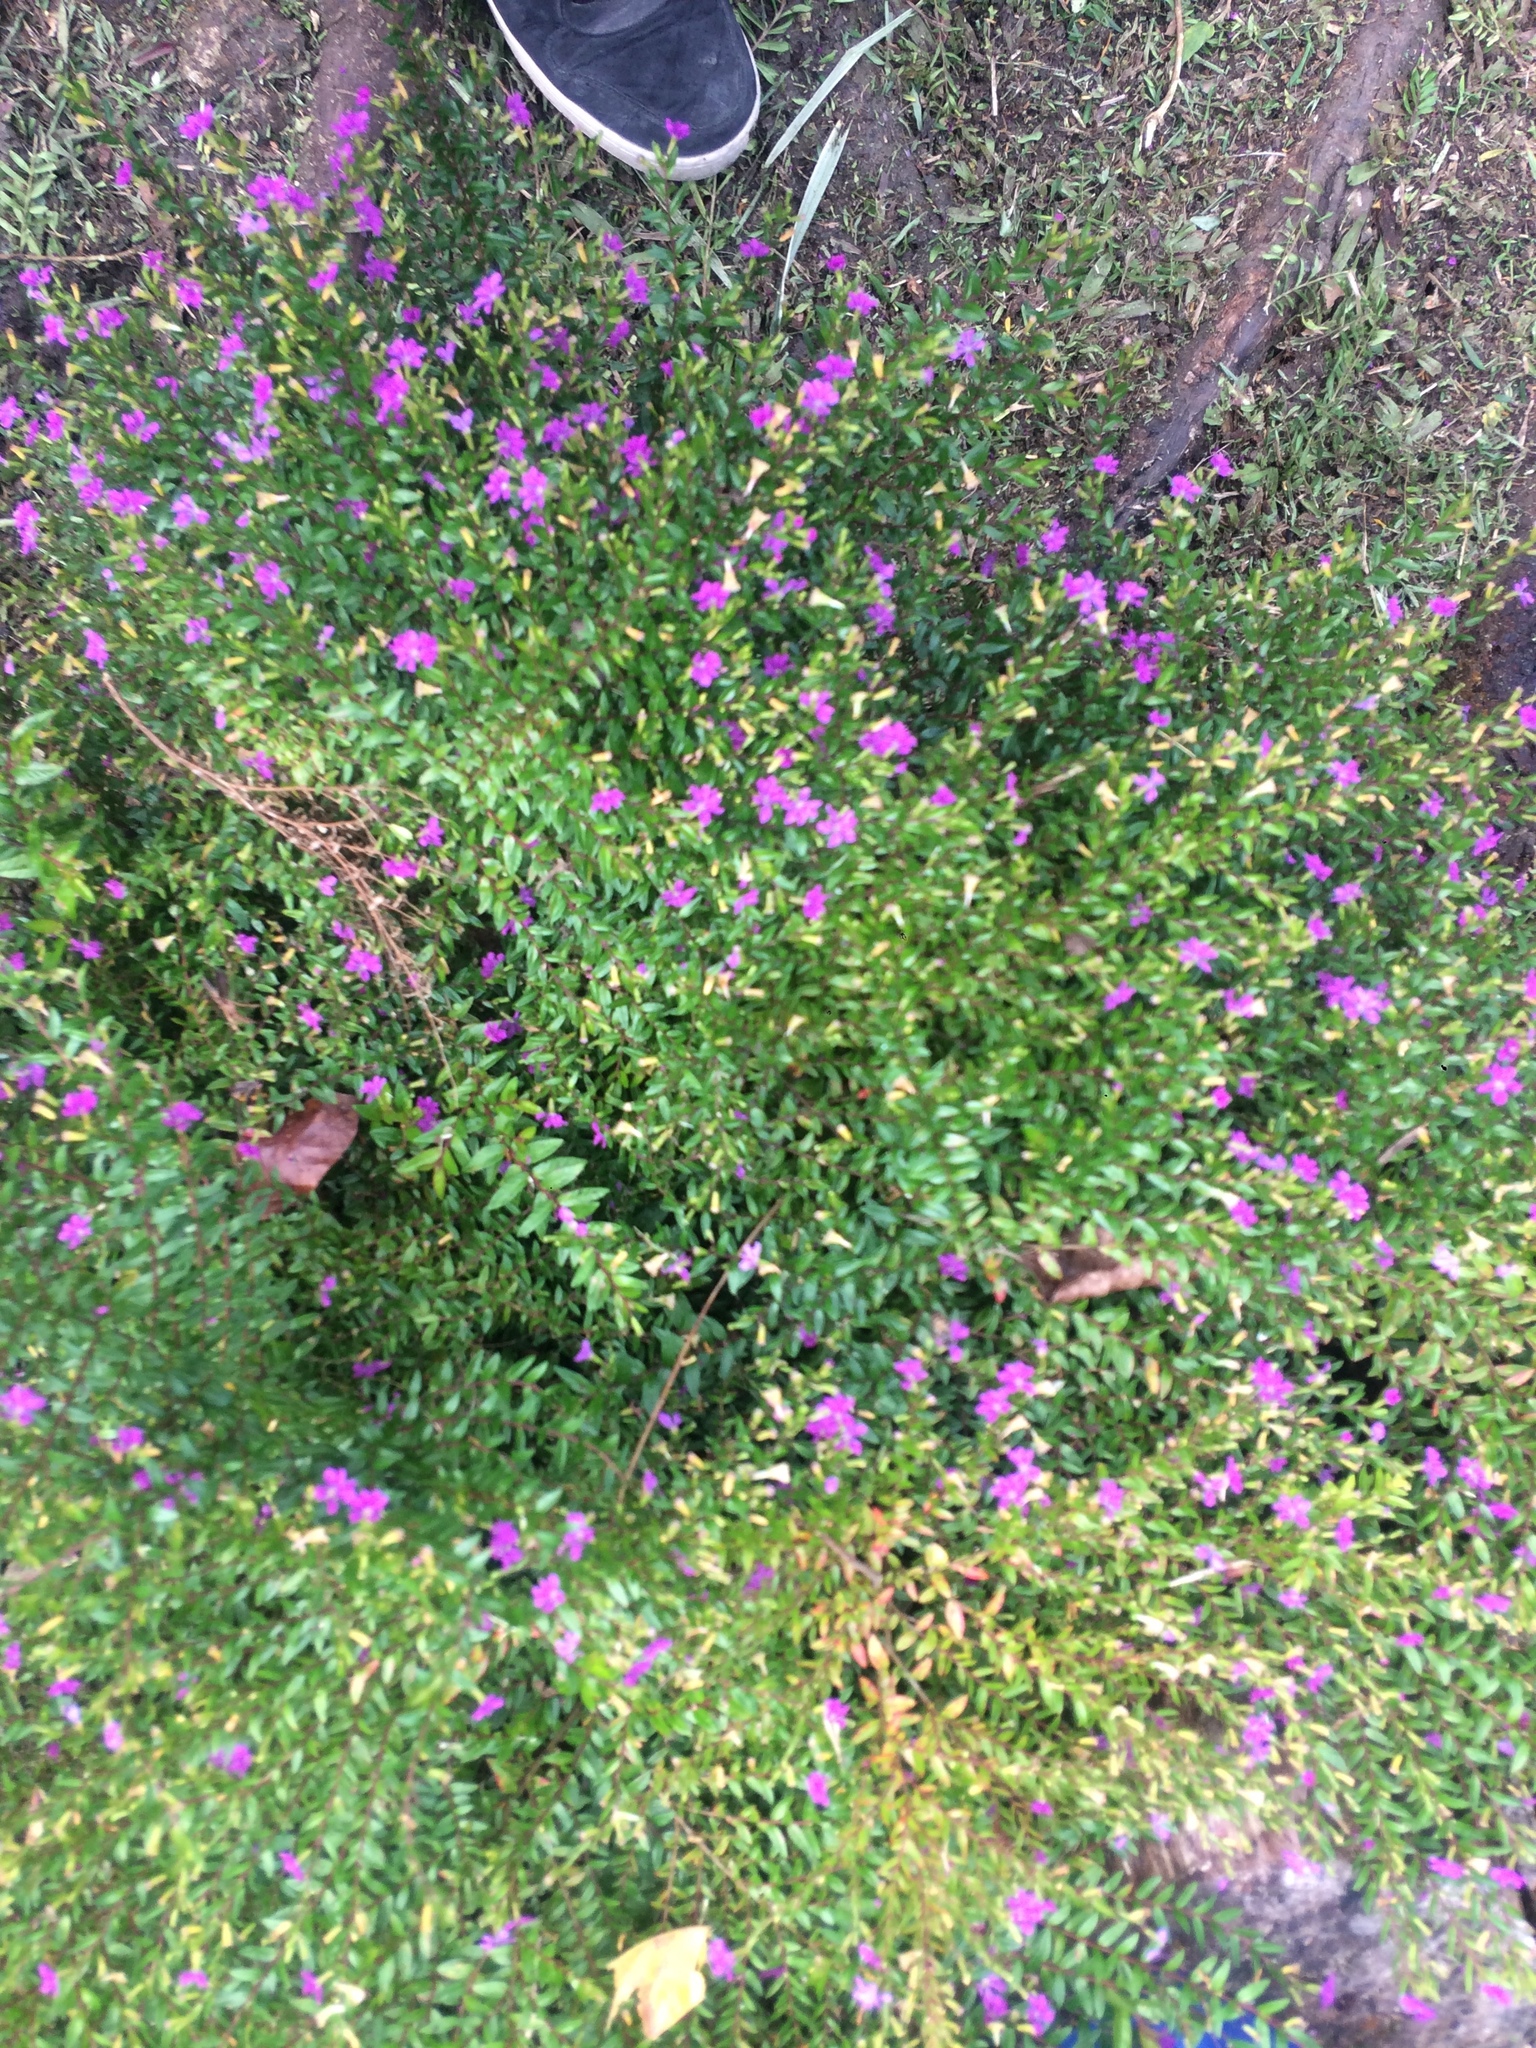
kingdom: Plantae
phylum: Tracheophyta
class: Magnoliopsida
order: Myrtales
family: Lythraceae
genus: Cuphea
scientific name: Cuphea hyssopifolia
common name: False heather
